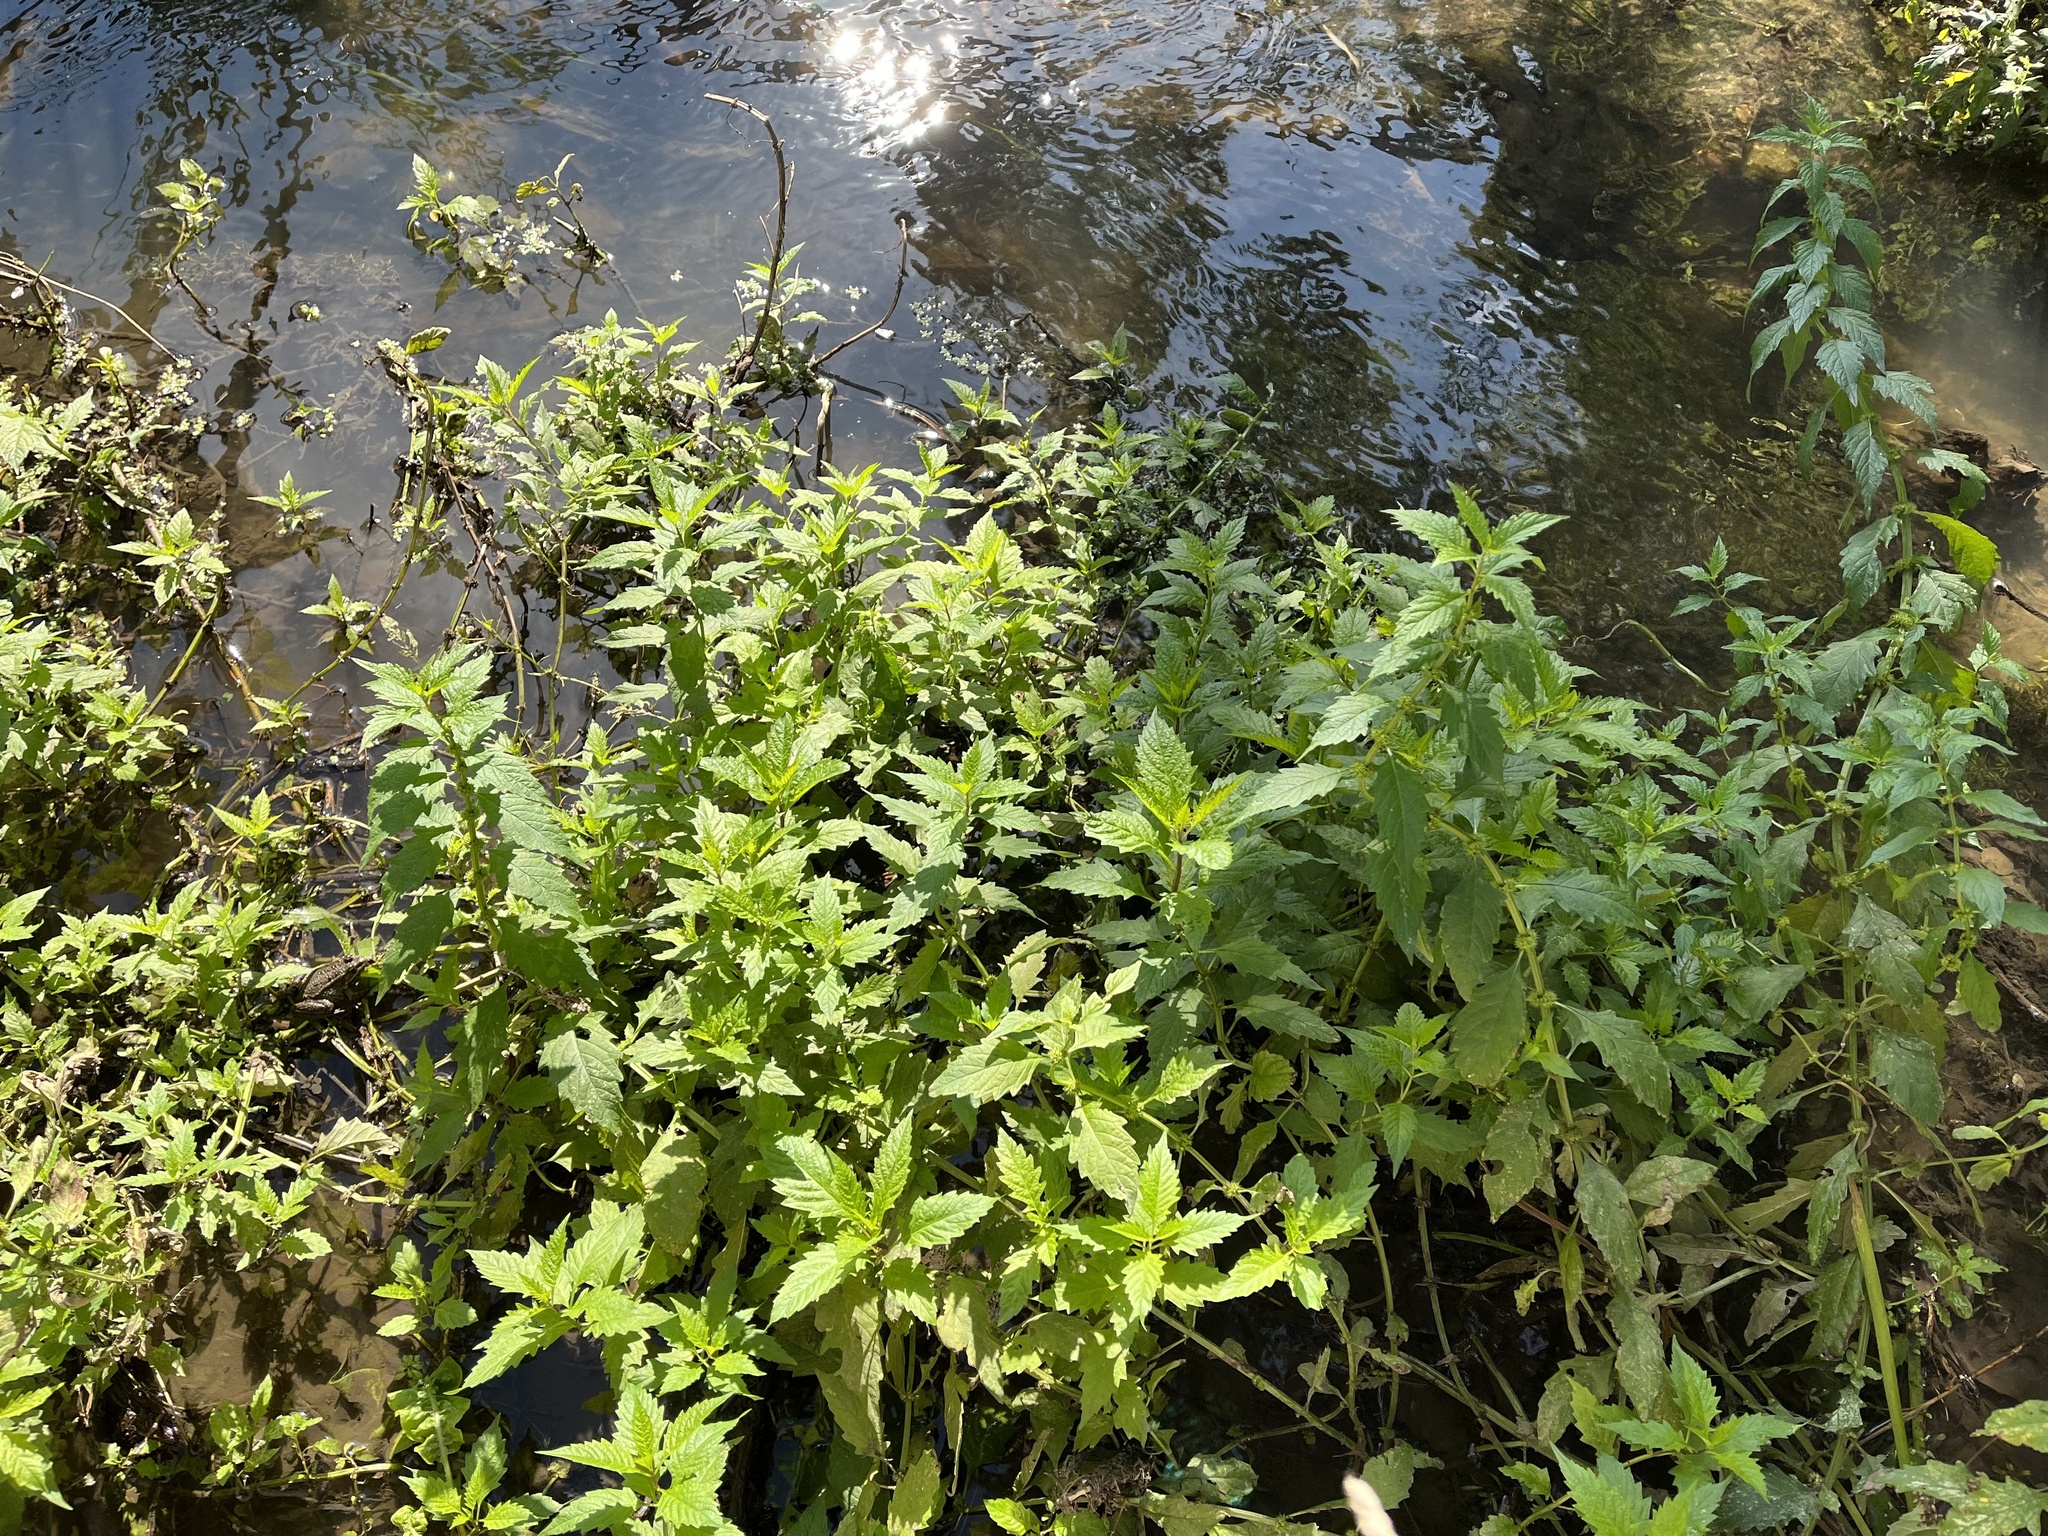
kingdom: Plantae
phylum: Tracheophyta
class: Magnoliopsida
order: Lamiales
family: Lamiaceae
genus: Lycopus
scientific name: Lycopus europaeus
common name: European bugleweed
